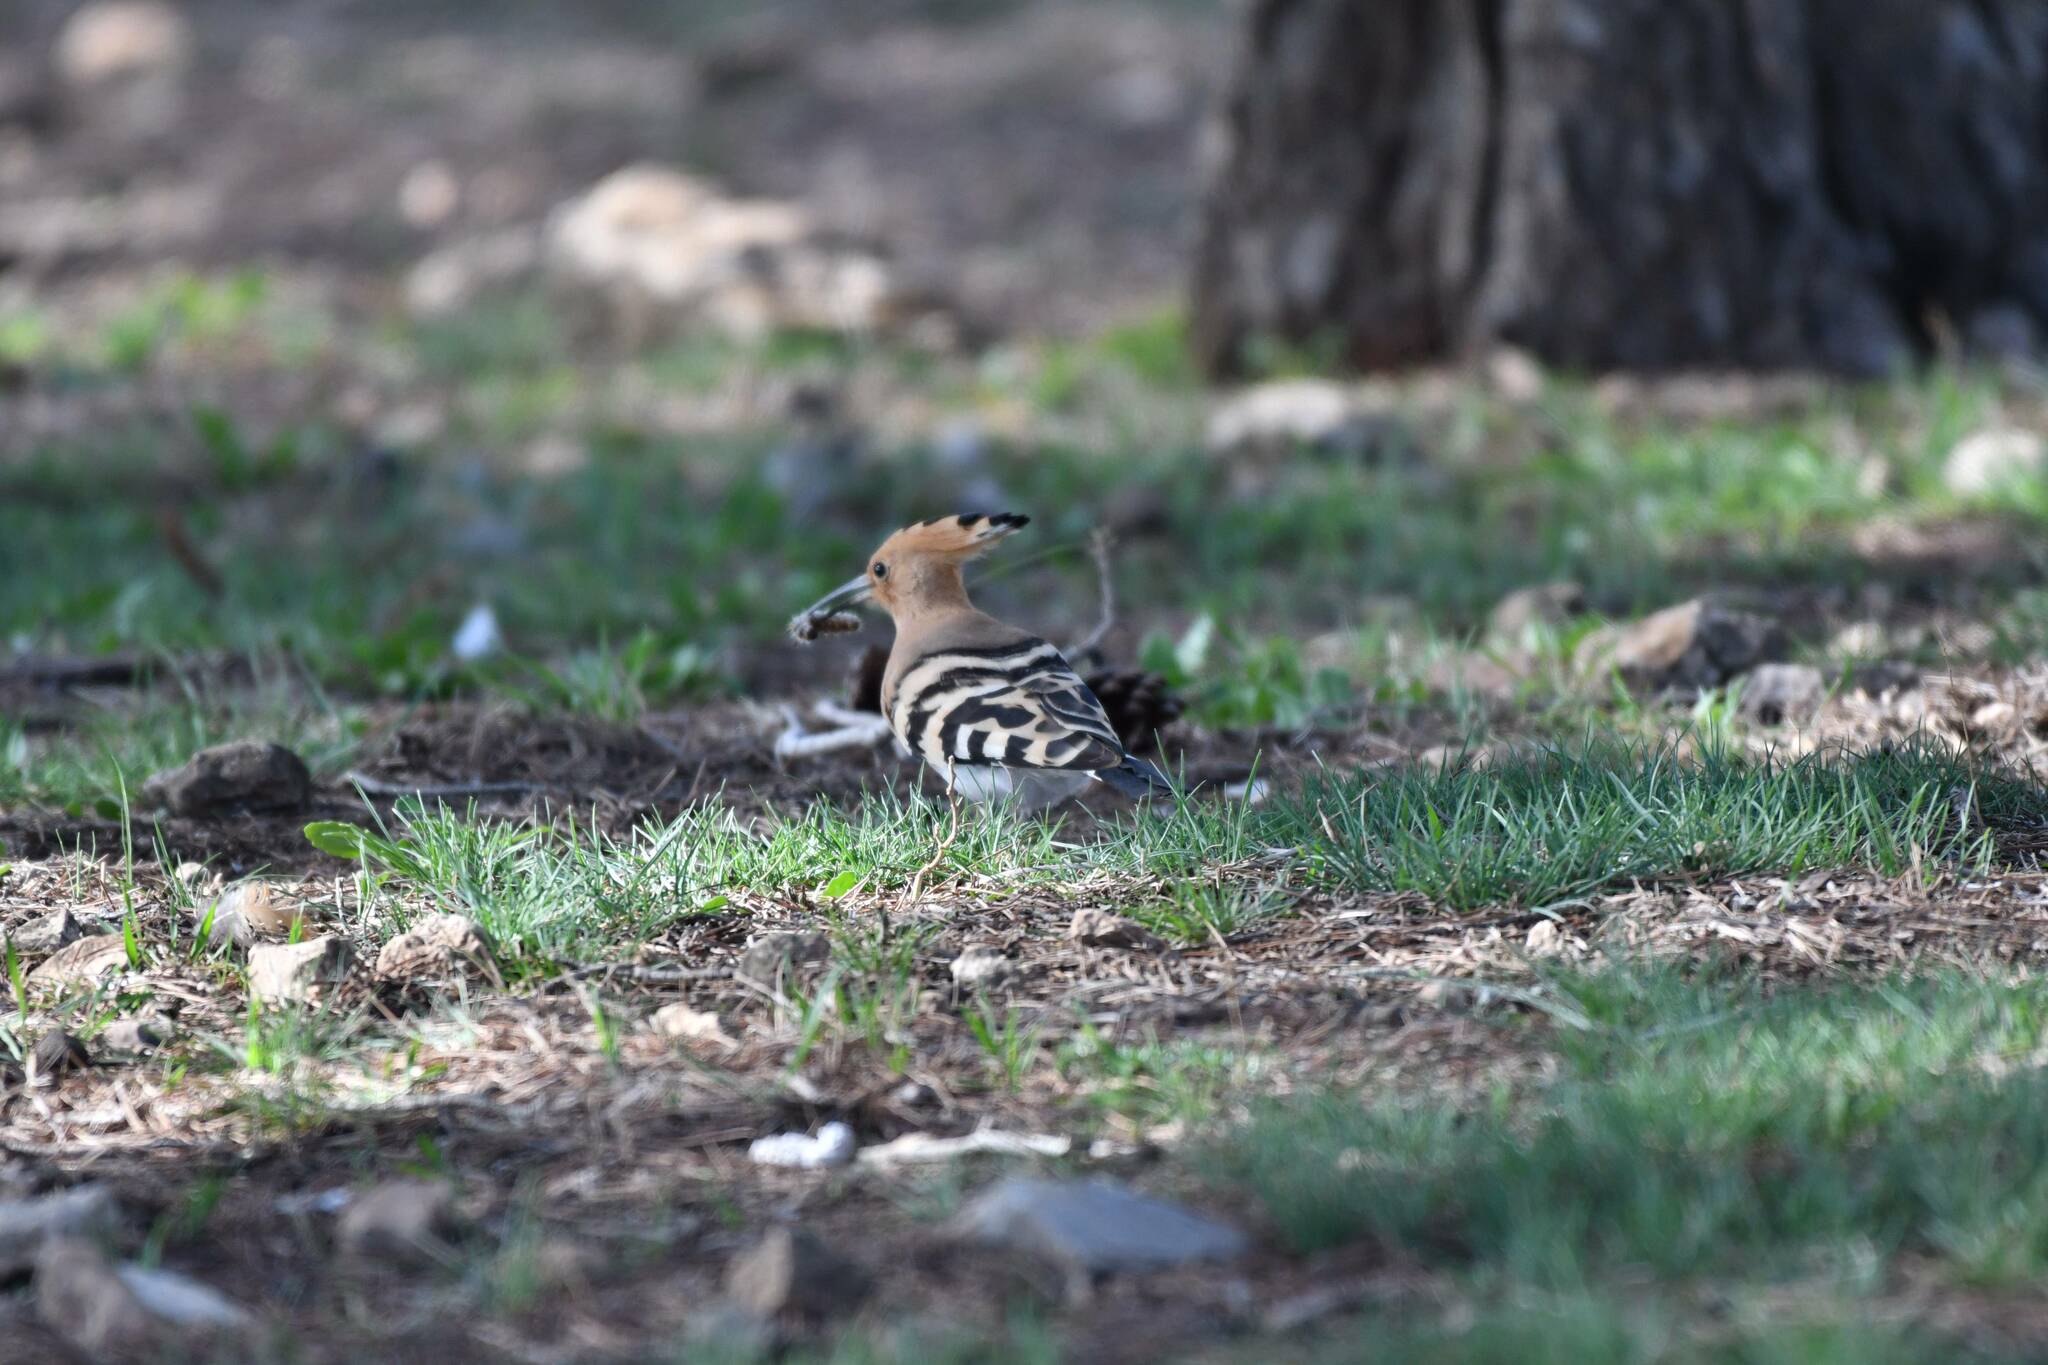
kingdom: Animalia
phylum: Chordata
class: Aves
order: Bucerotiformes
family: Upupidae
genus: Upupa
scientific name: Upupa epops
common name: Eurasian hoopoe
